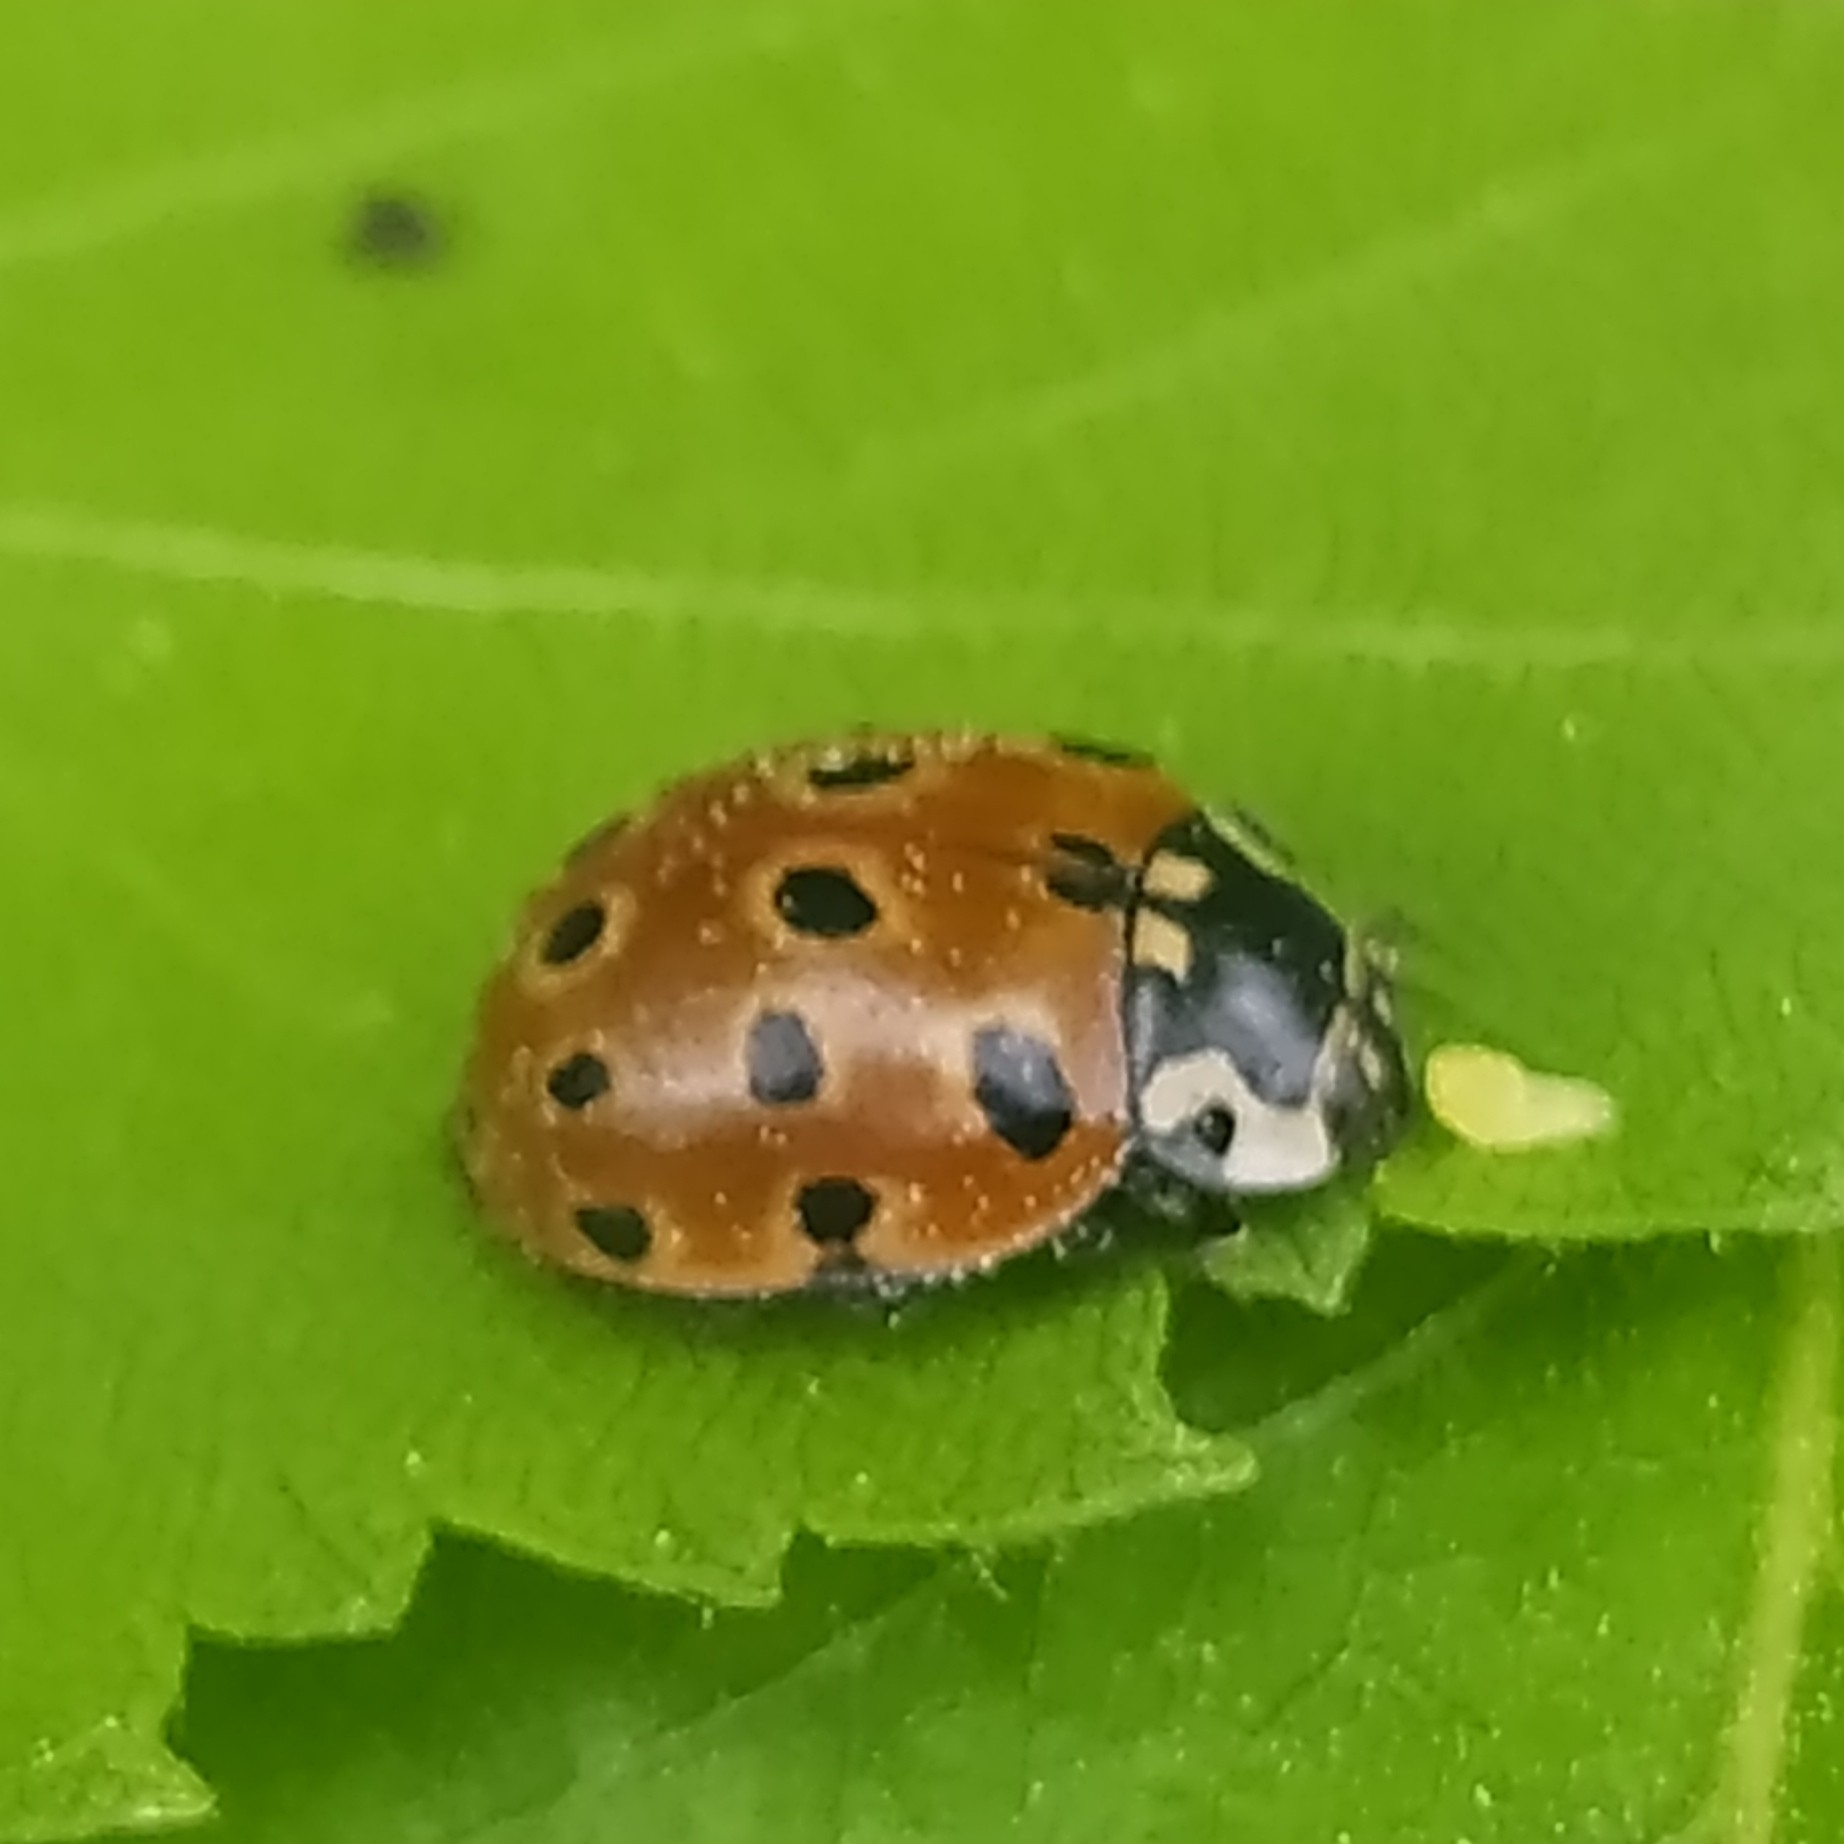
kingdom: Animalia
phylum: Arthropoda
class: Insecta
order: Coleoptera
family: Coccinellidae
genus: Anatis
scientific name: Anatis ocellata
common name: Eyed ladybird
